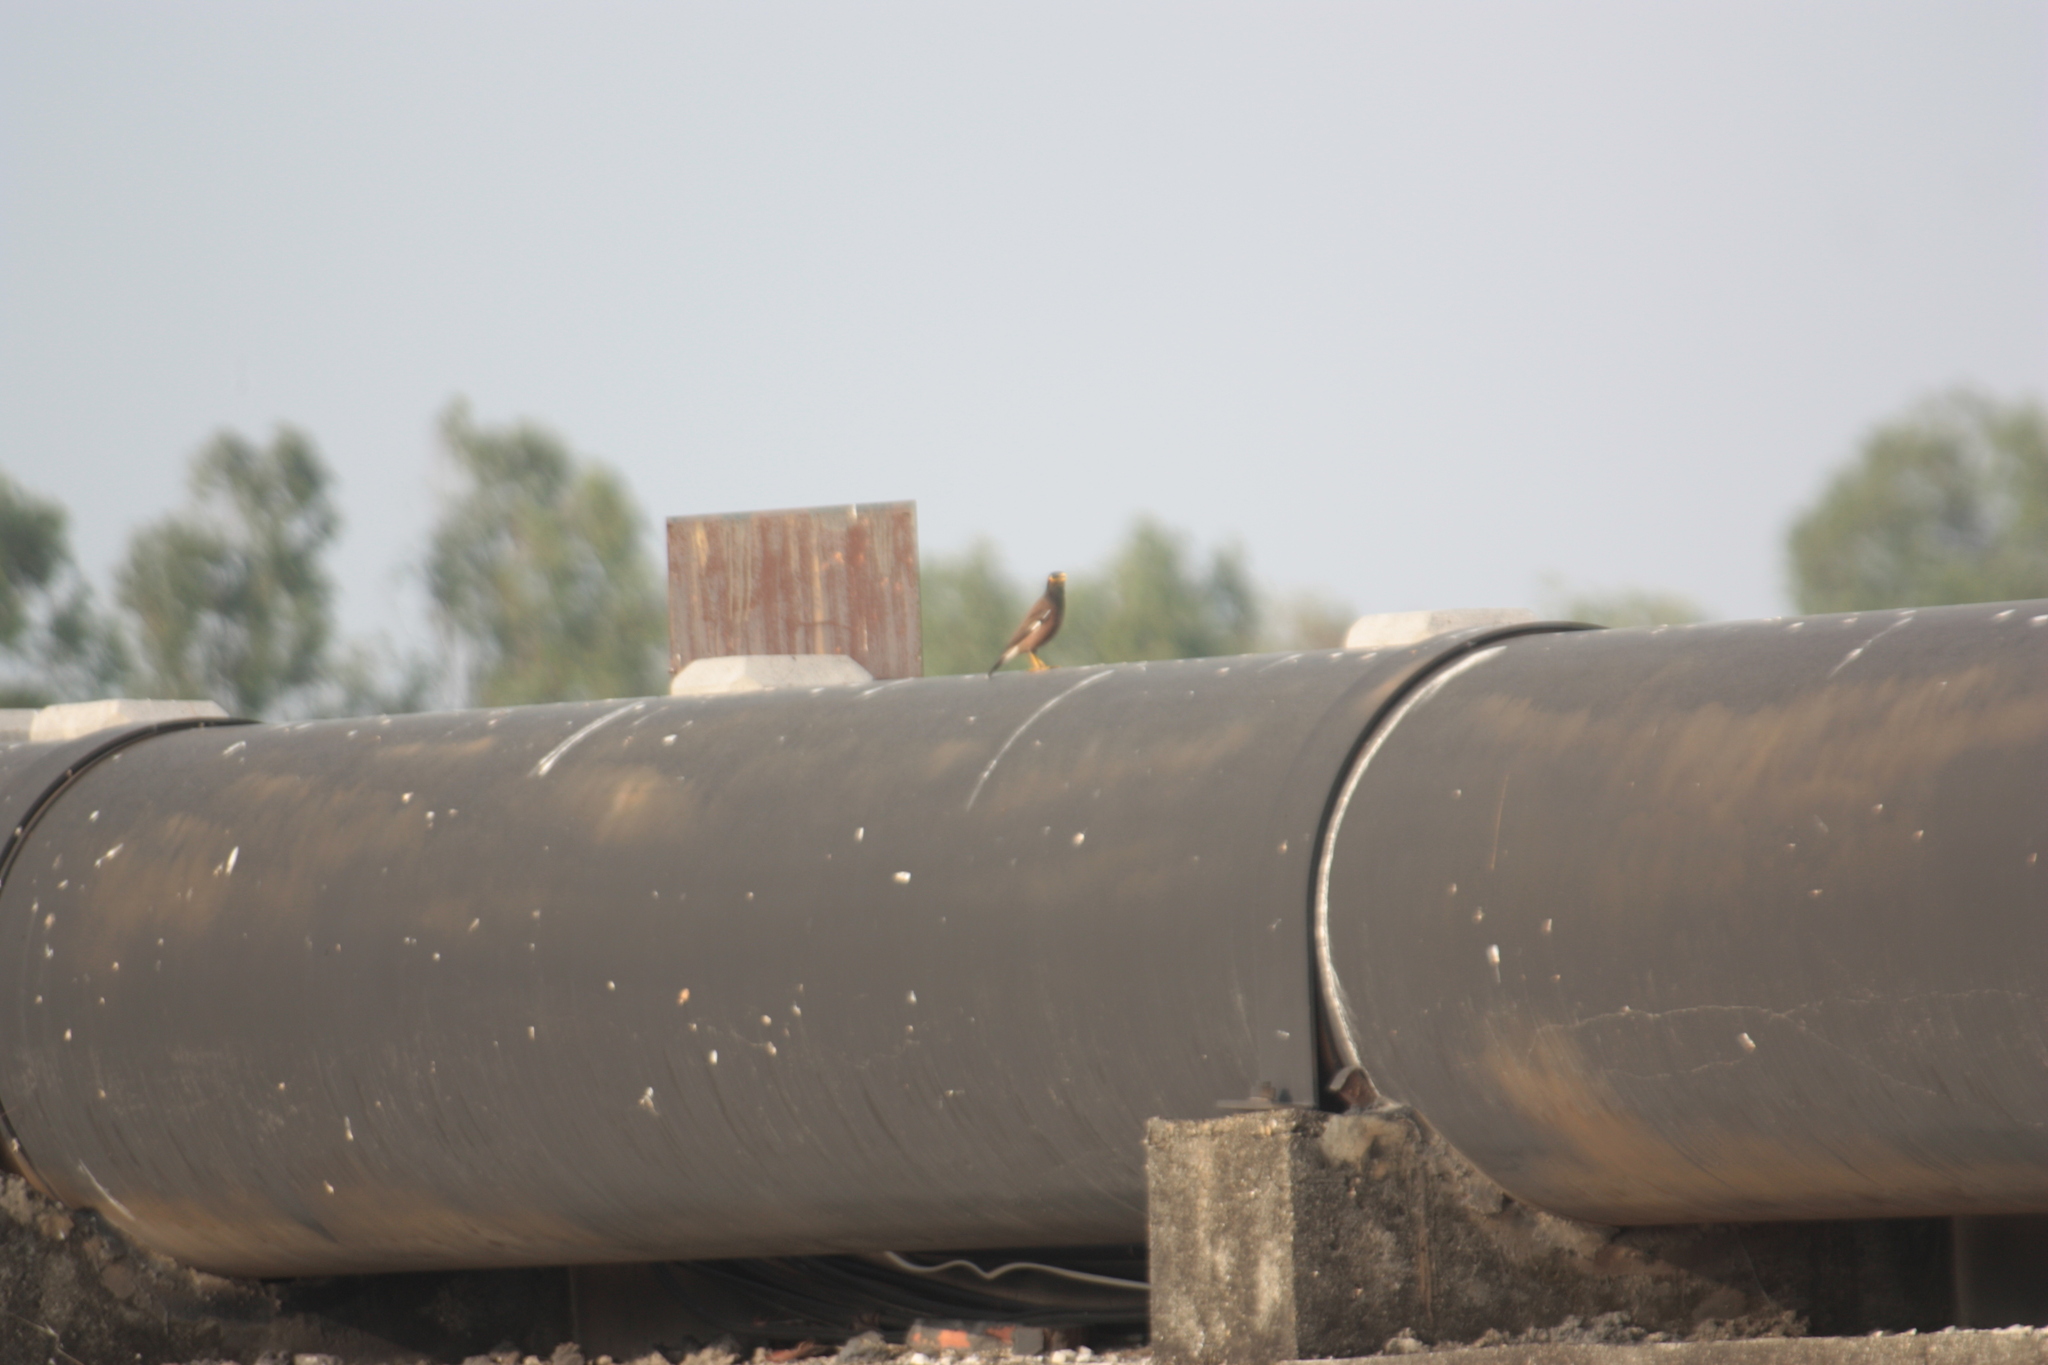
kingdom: Animalia
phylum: Chordata
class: Aves
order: Passeriformes
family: Sturnidae
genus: Acridotheres
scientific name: Acridotheres tristis
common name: Common myna
